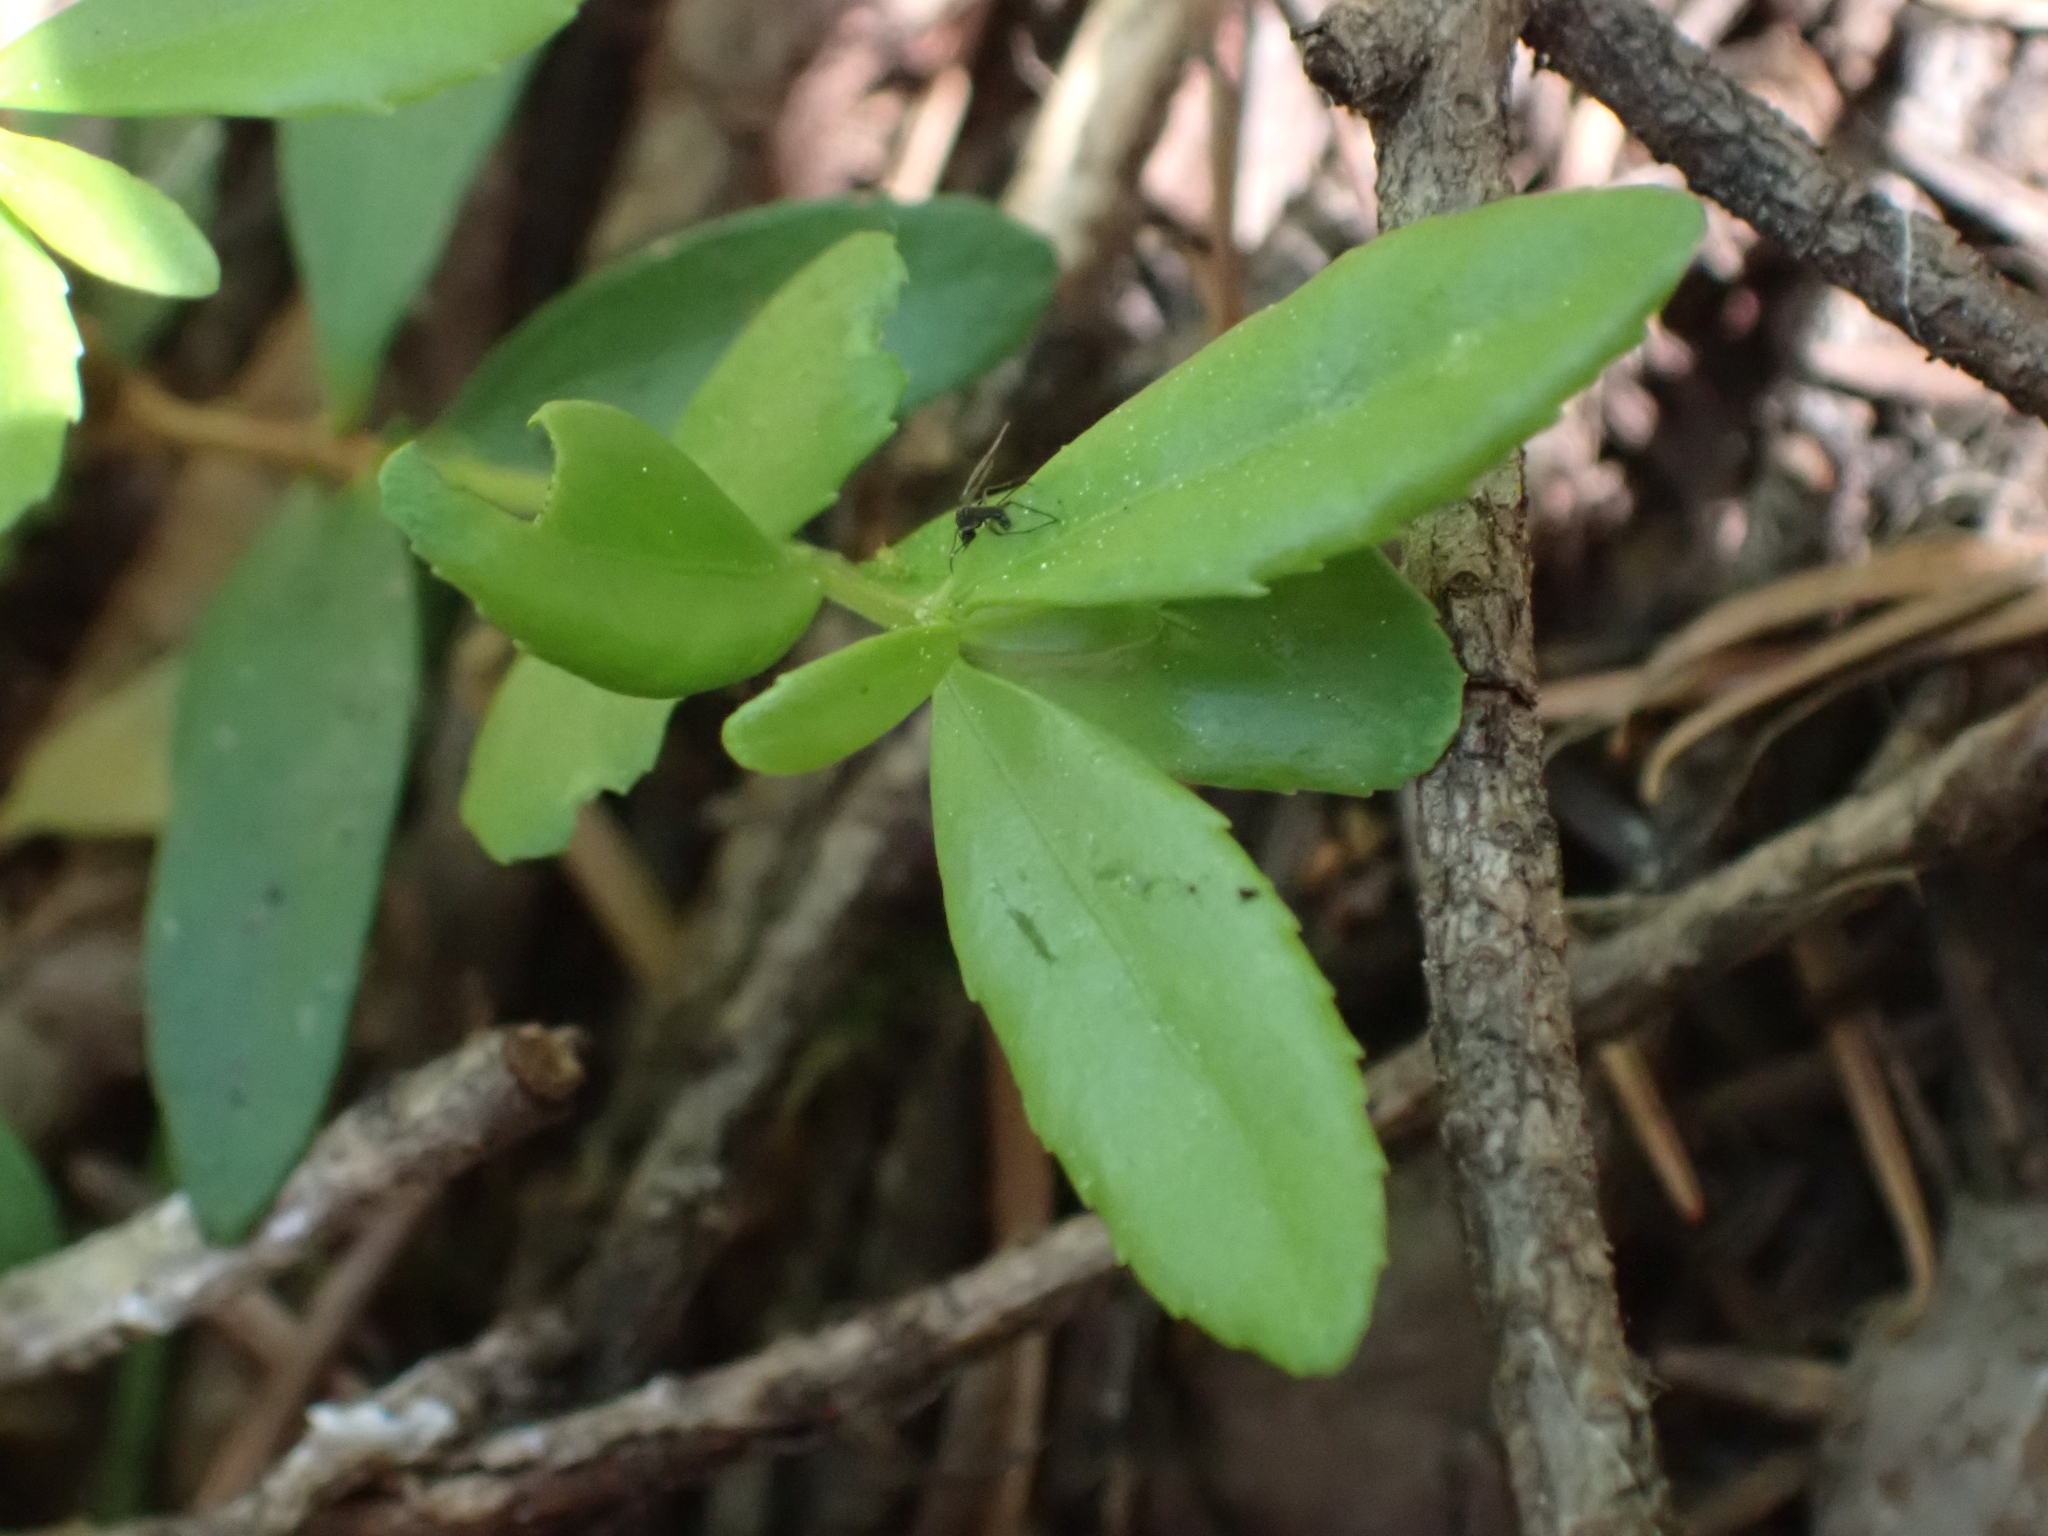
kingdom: Plantae
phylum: Tracheophyta
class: Magnoliopsida
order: Celastrales
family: Celastraceae
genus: Paxistima
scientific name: Paxistima myrsinites
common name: Mountain-lover
